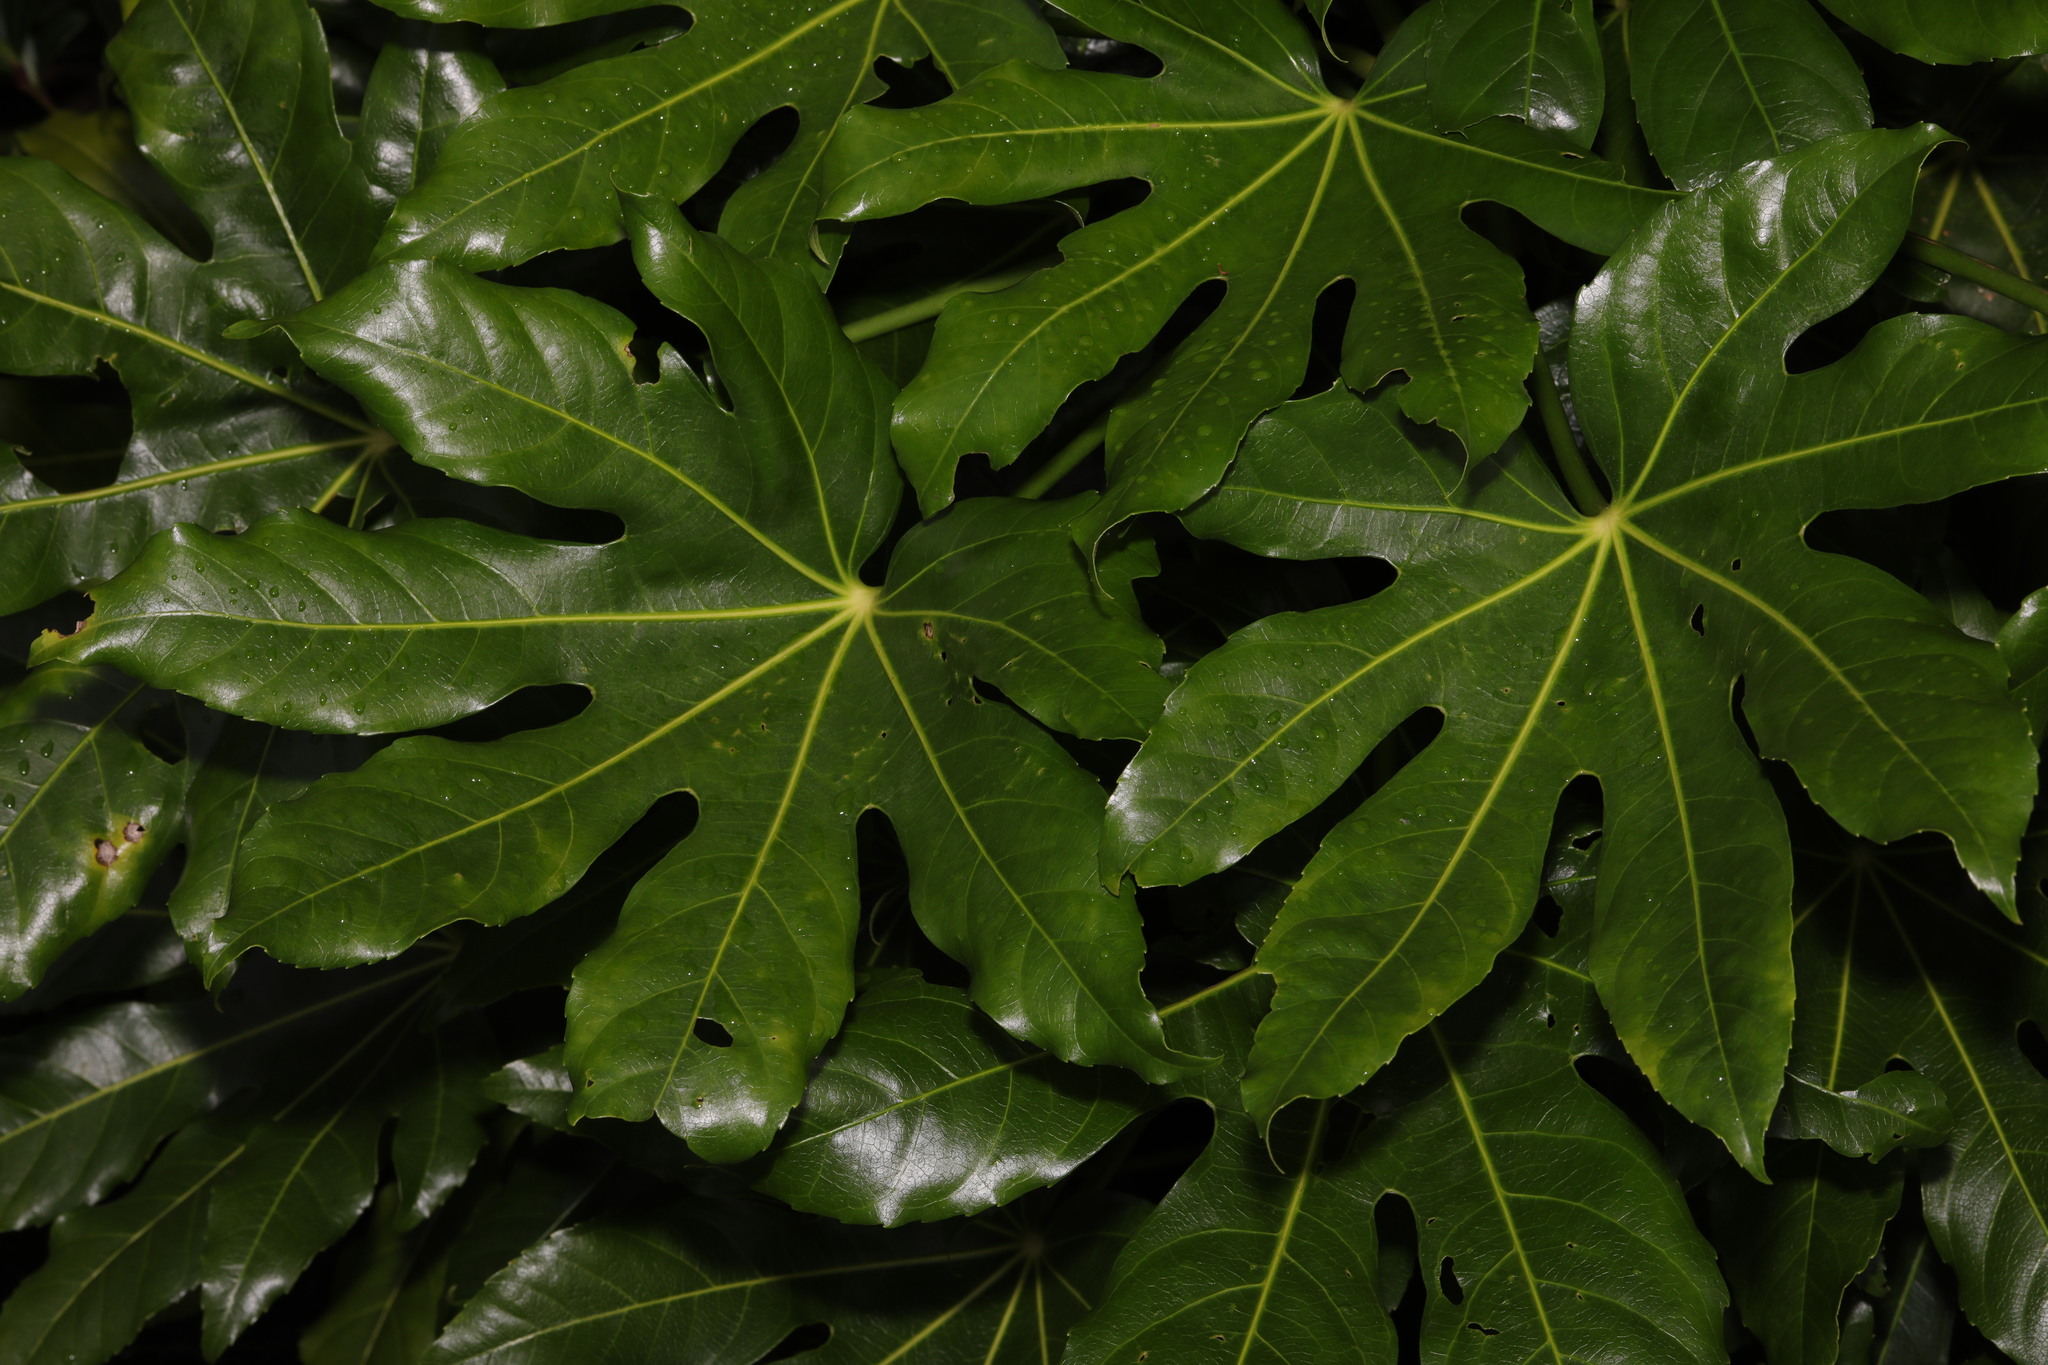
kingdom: Plantae
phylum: Tracheophyta
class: Magnoliopsida
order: Apiales
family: Araliaceae
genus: Fatsia
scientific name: Fatsia japonica
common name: Fatsia
